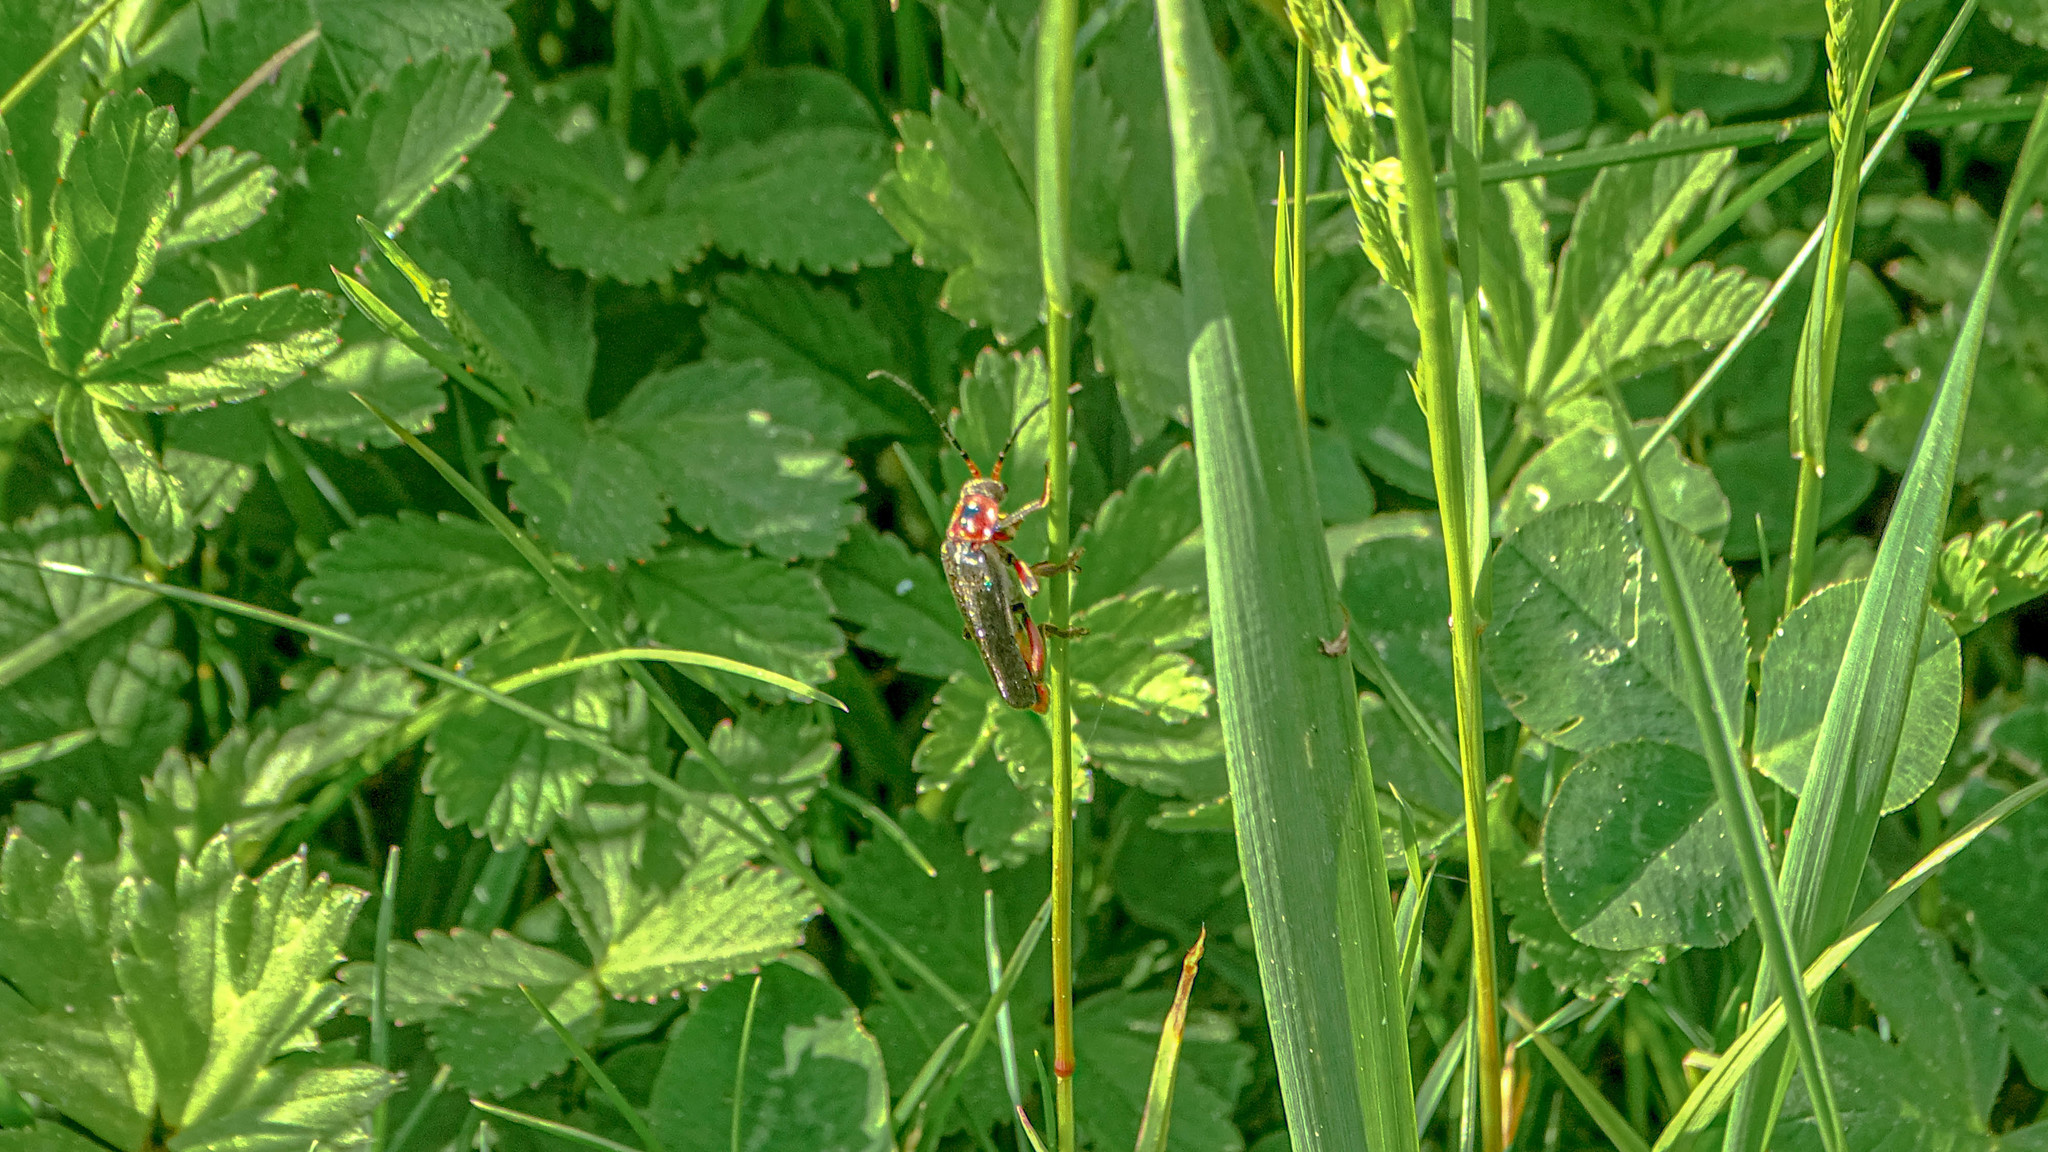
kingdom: Animalia
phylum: Arthropoda
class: Insecta
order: Coleoptera
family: Cantharidae
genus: Cantharis
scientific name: Cantharis rustica
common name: Soldier beetle
